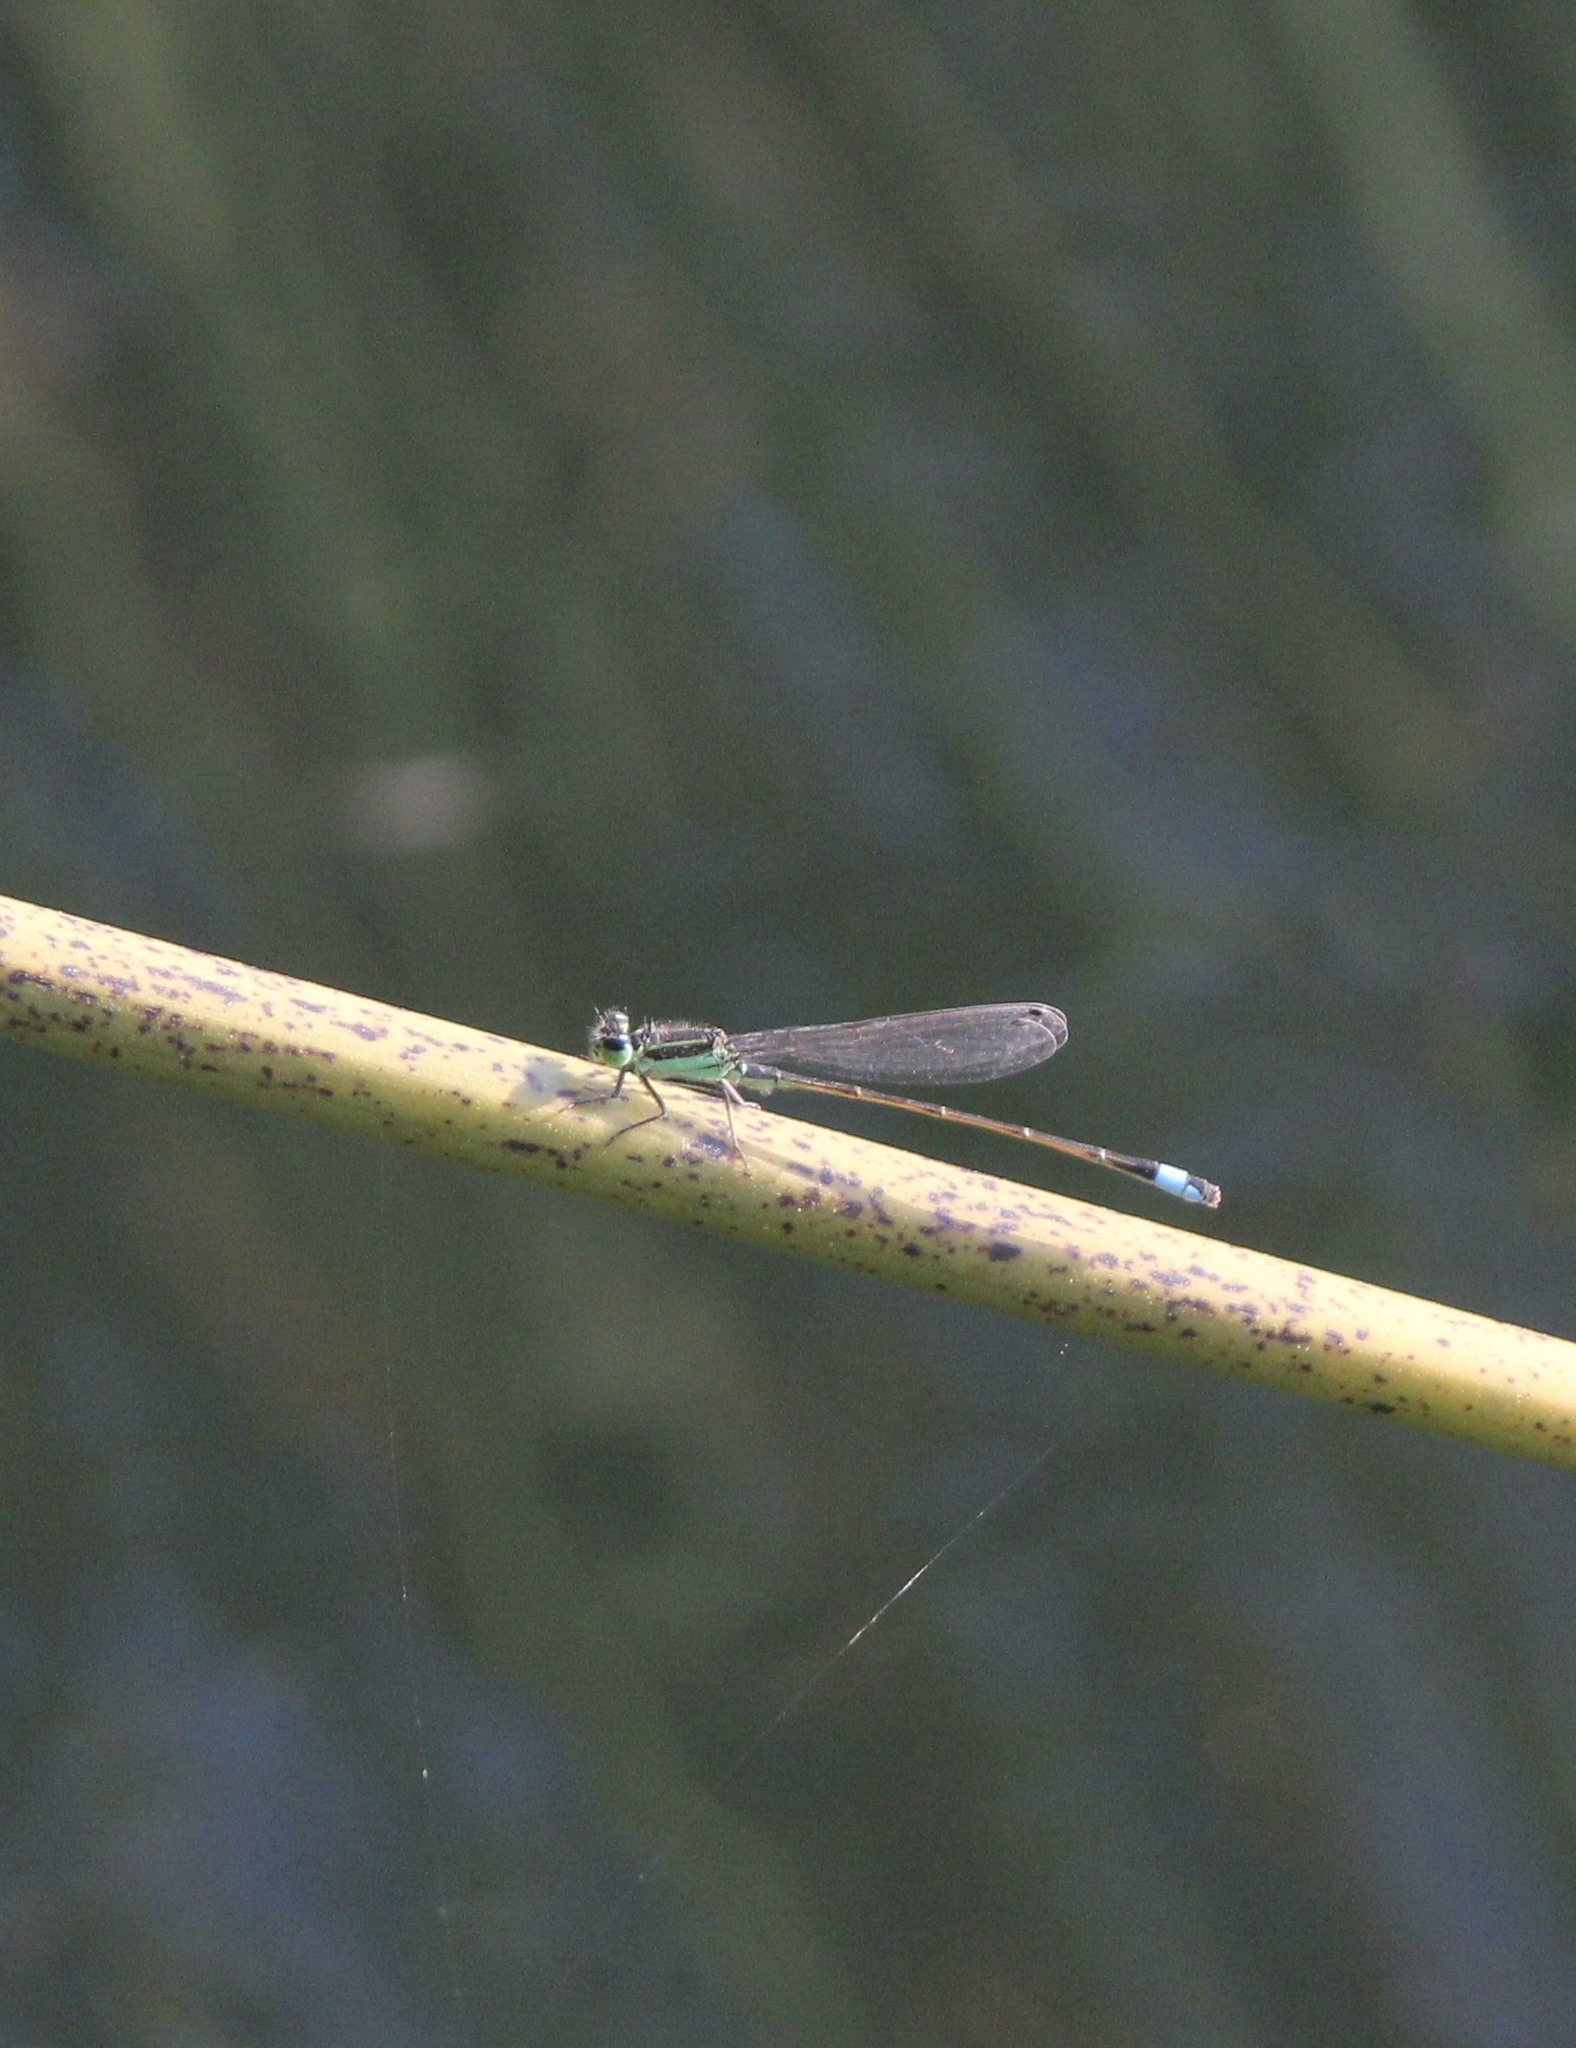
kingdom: Animalia
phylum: Arthropoda
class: Insecta
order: Odonata
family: Coenagrionidae
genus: Ischnura
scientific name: Ischnura ramburii
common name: Rambur's forktail
